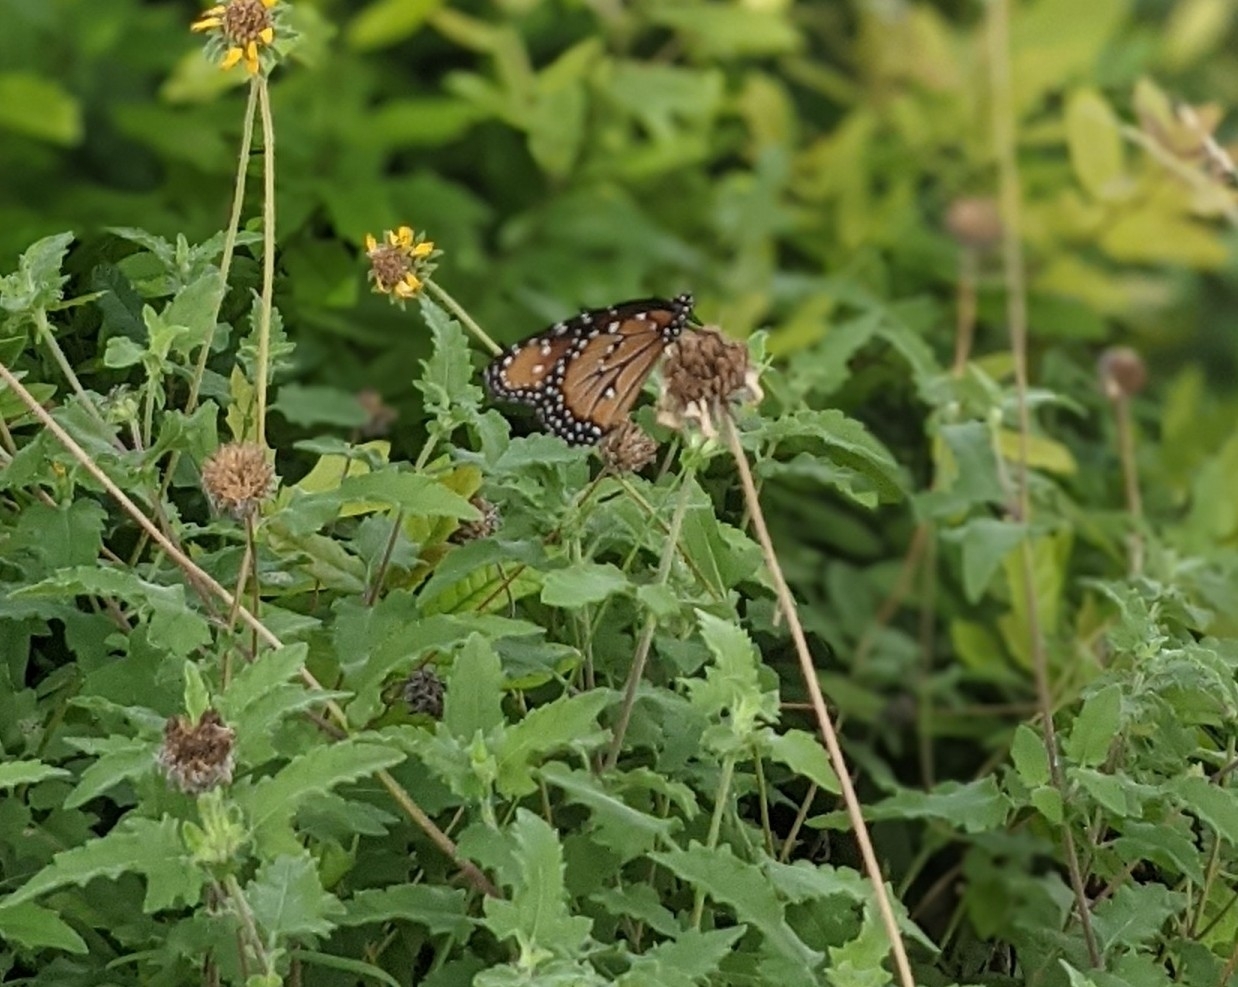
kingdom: Animalia
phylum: Arthropoda
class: Insecta
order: Lepidoptera
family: Nymphalidae
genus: Danaus
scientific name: Danaus gilippus
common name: Queen
